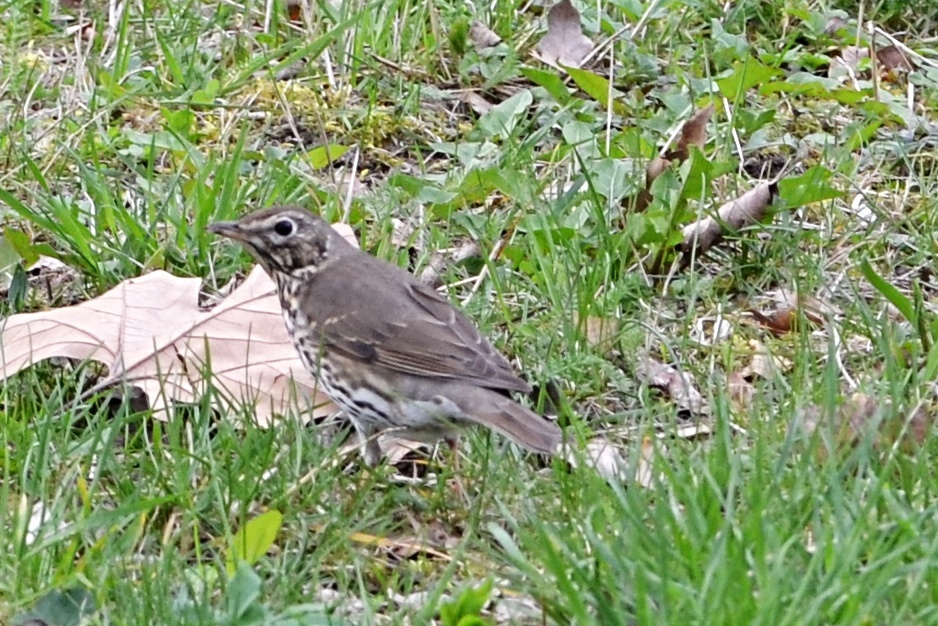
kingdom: Animalia
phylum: Chordata
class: Aves
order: Passeriformes
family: Turdidae
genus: Turdus
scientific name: Turdus philomelos
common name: Song thrush
